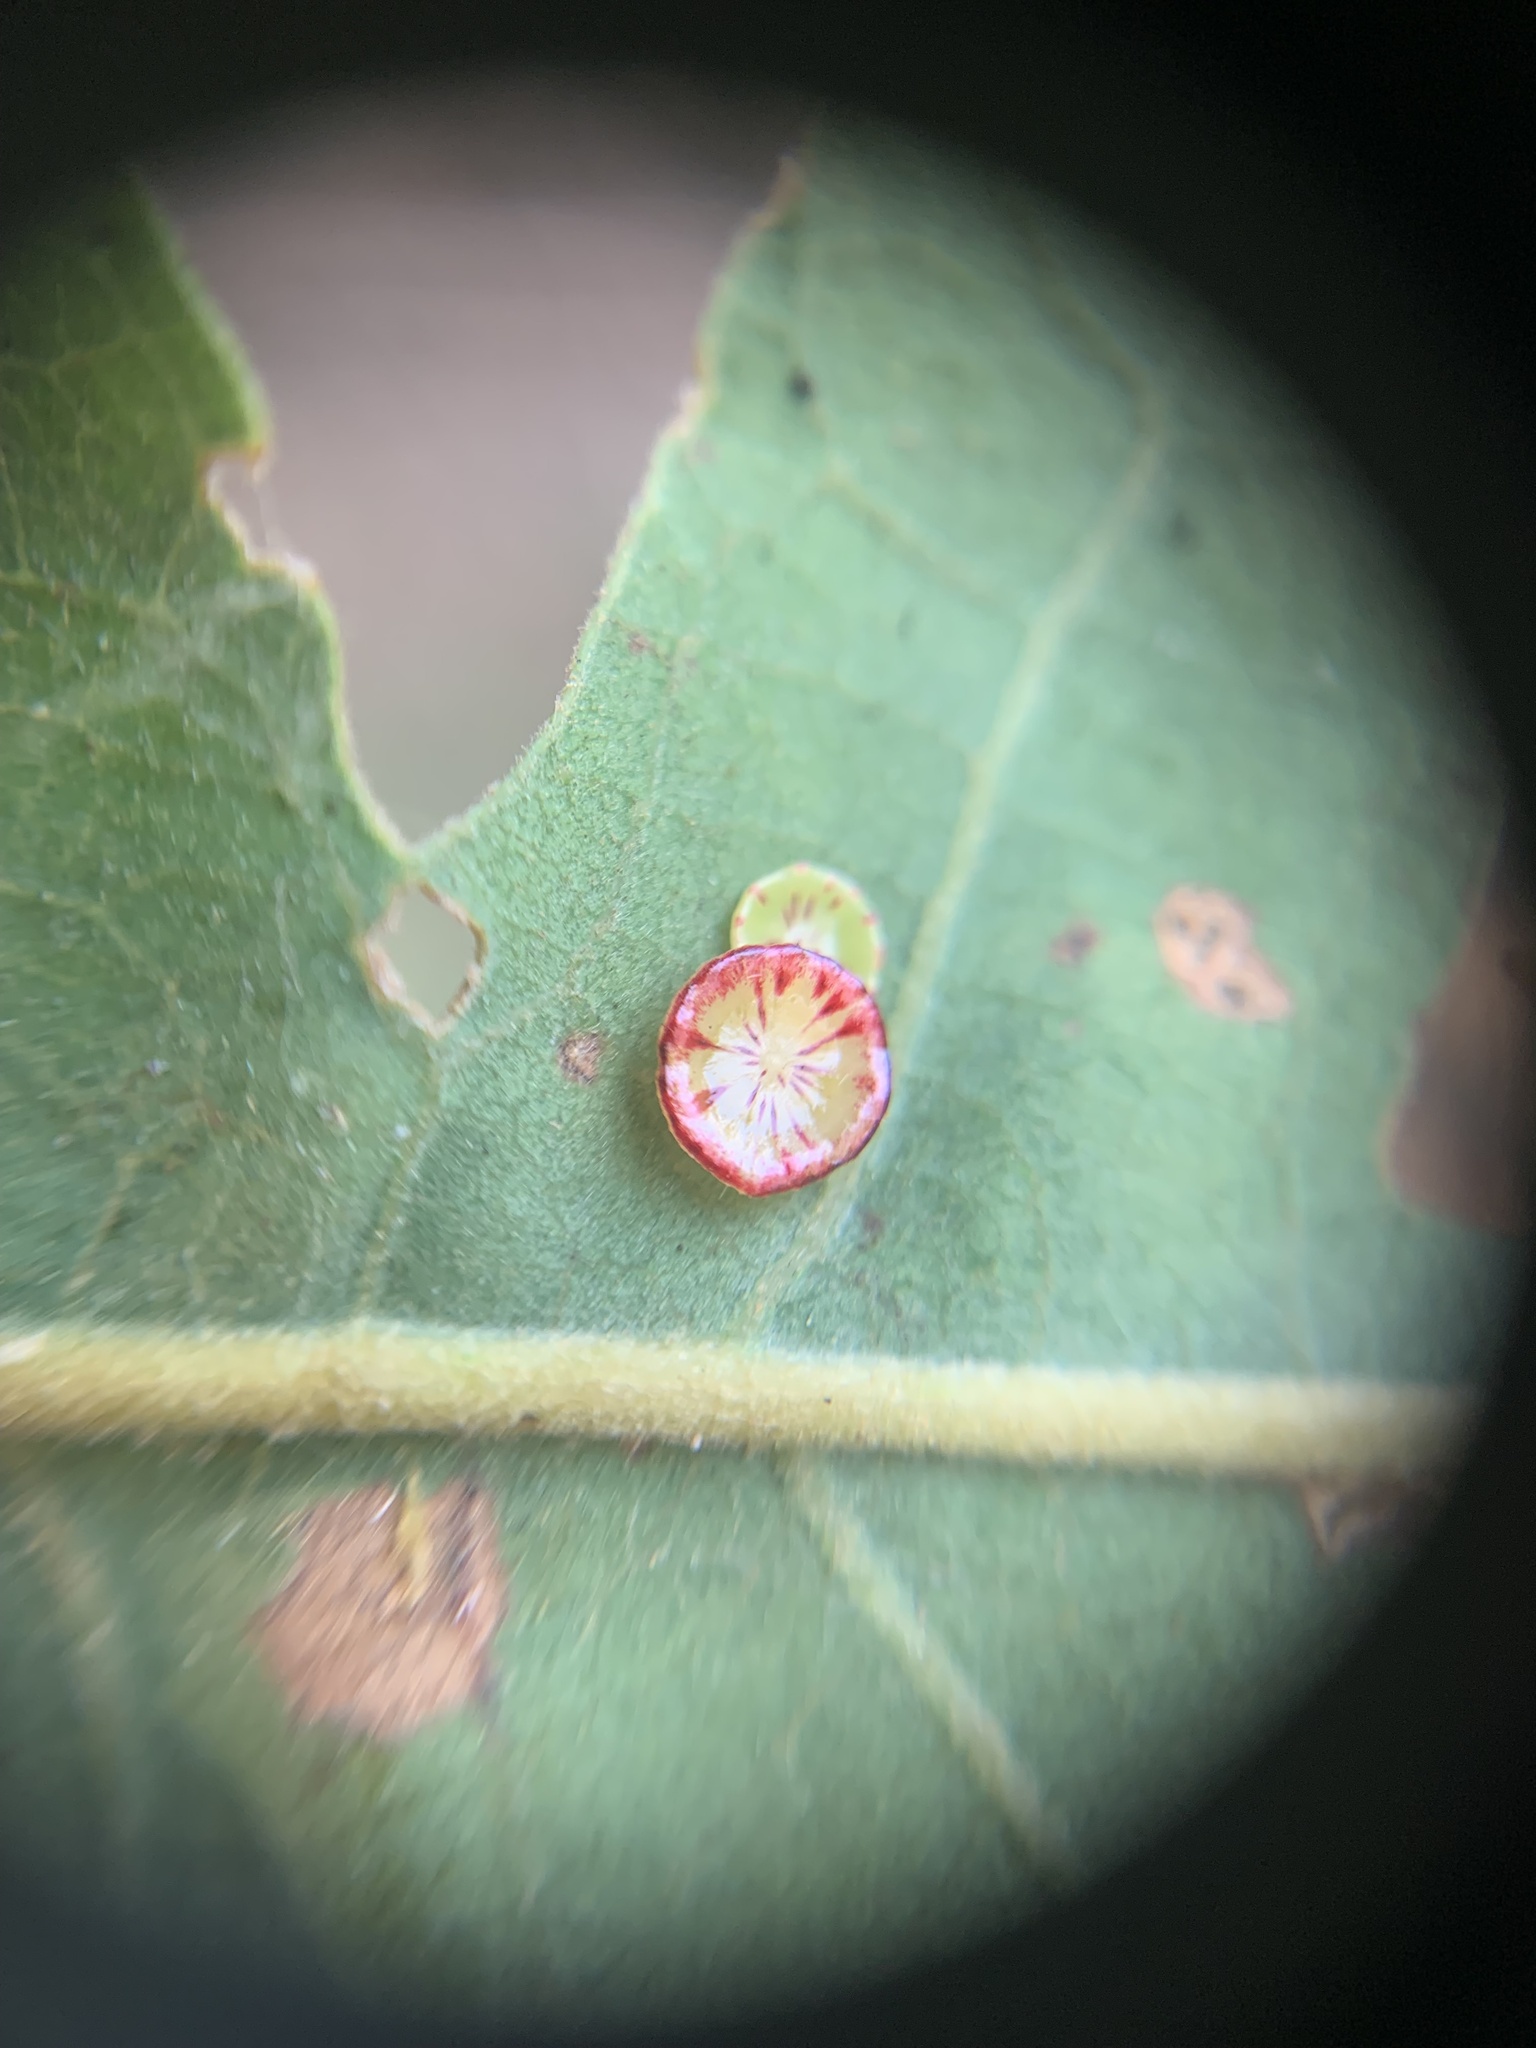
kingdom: Animalia
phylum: Arthropoda
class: Insecta
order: Hymenoptera
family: Cynipidae
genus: Andricus
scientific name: Andricus
